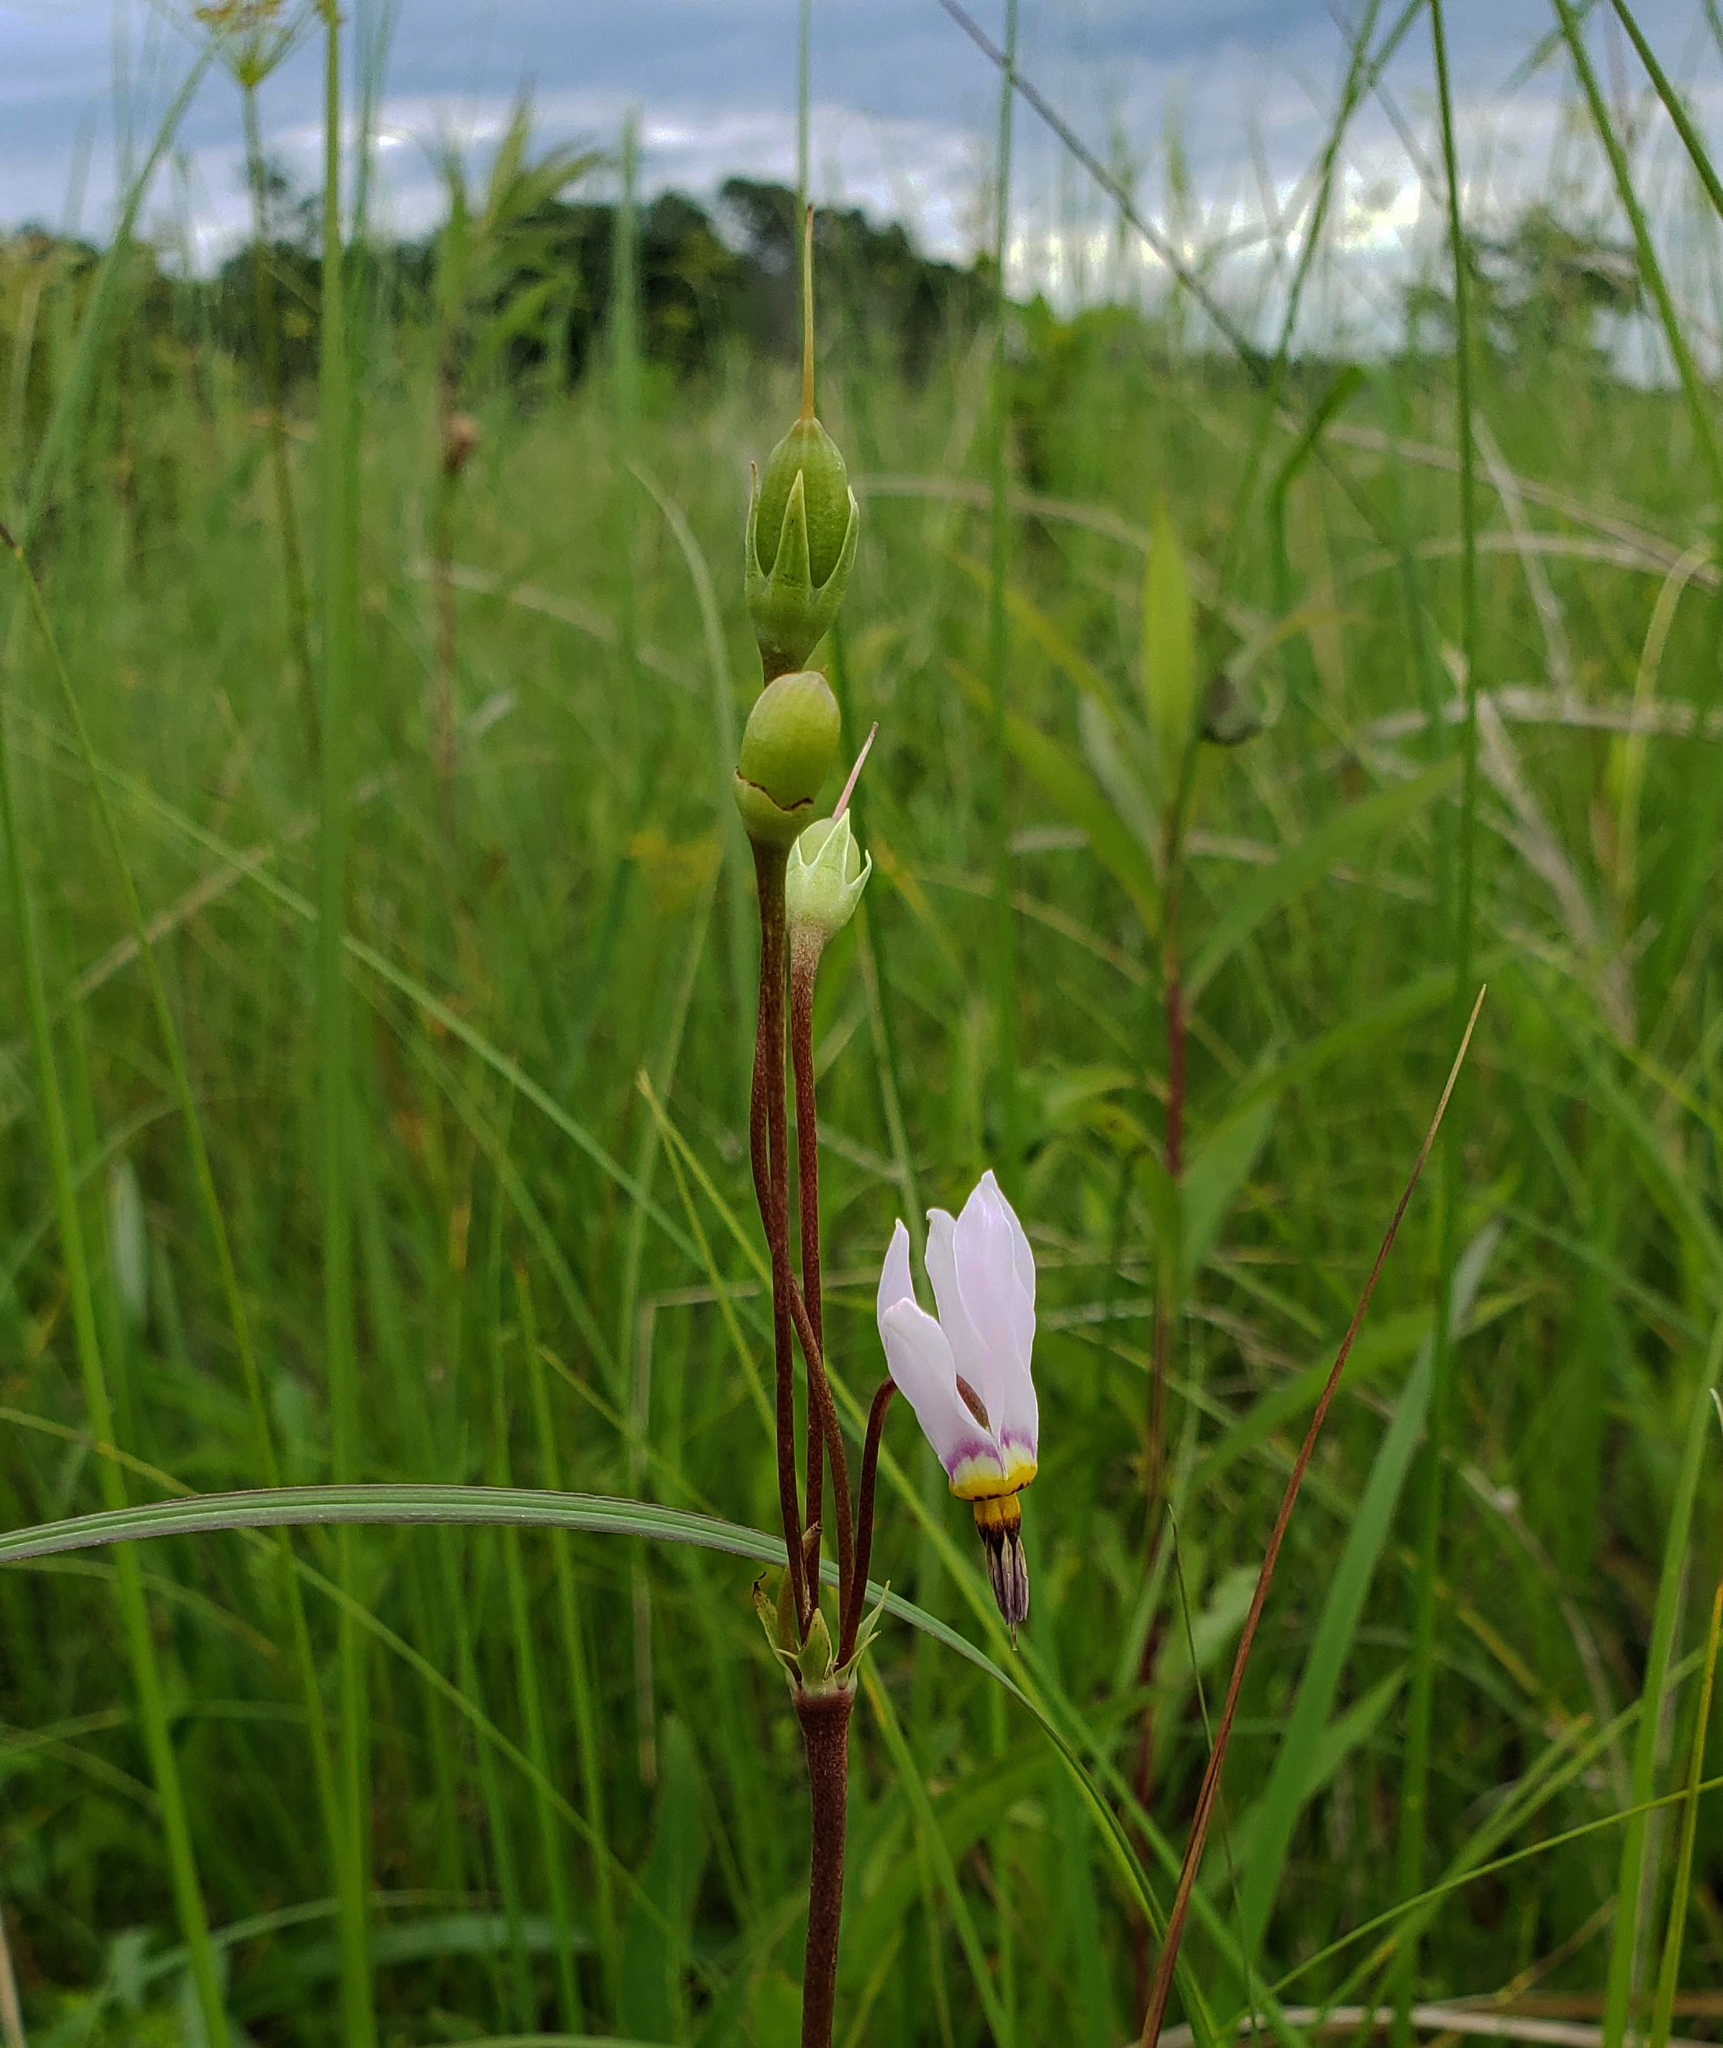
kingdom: Plantae
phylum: Tracheophyta
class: Magnoliopsida
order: Ericales
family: Primulaceae
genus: Dodecatheon
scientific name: Dodecatheon meadia
